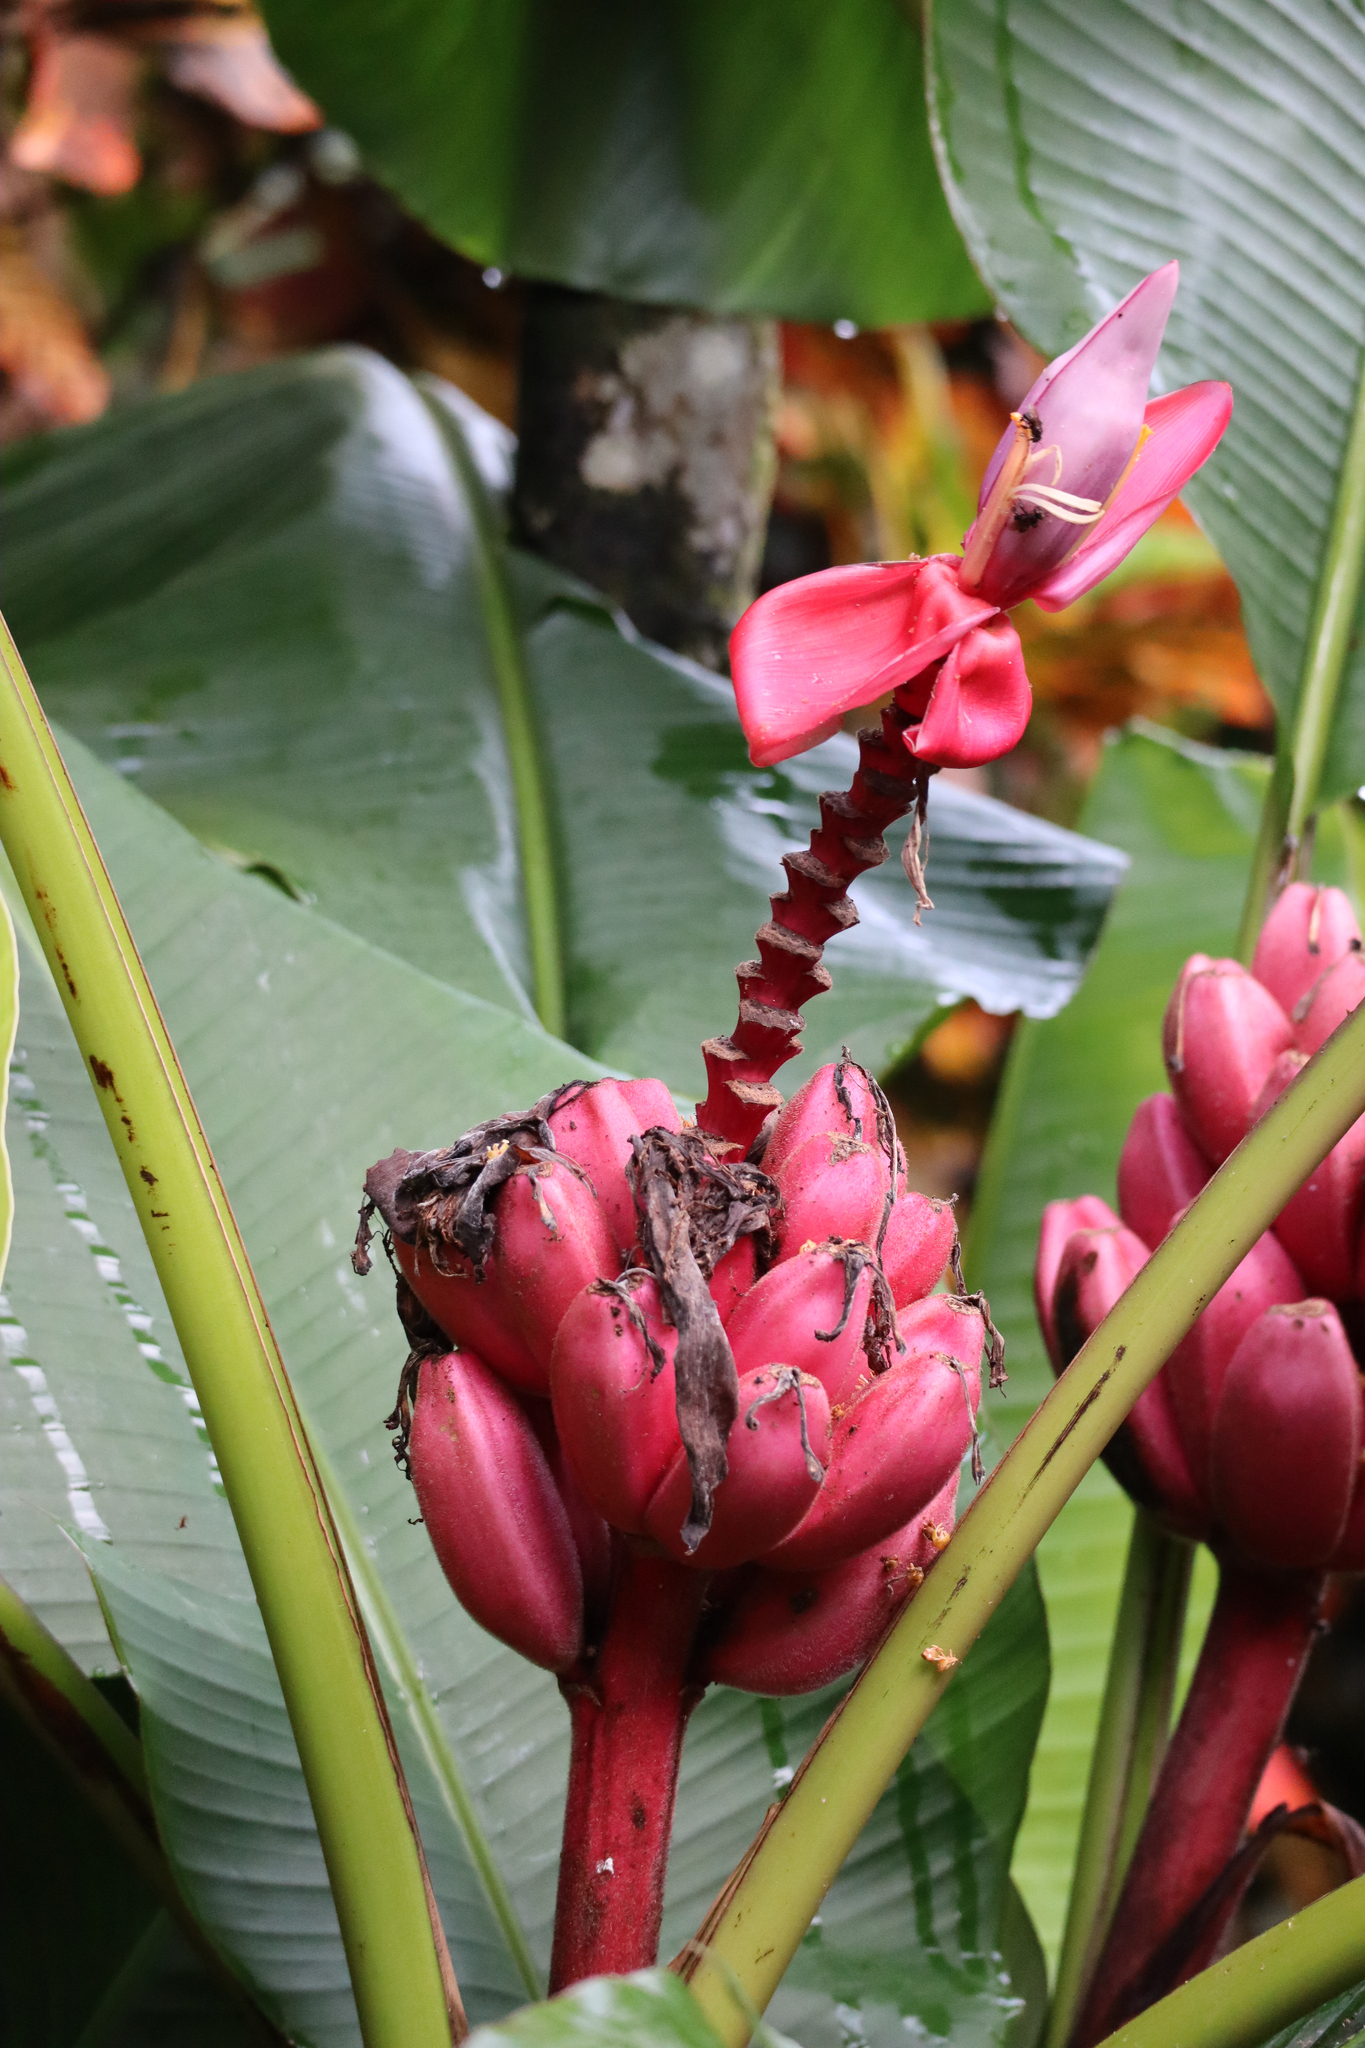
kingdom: Plantae
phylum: Tracheophyta
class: Liliopsida
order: Zingiberales
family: Musaceae
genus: Musa
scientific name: Musa velutina
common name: Pink velvet banana
